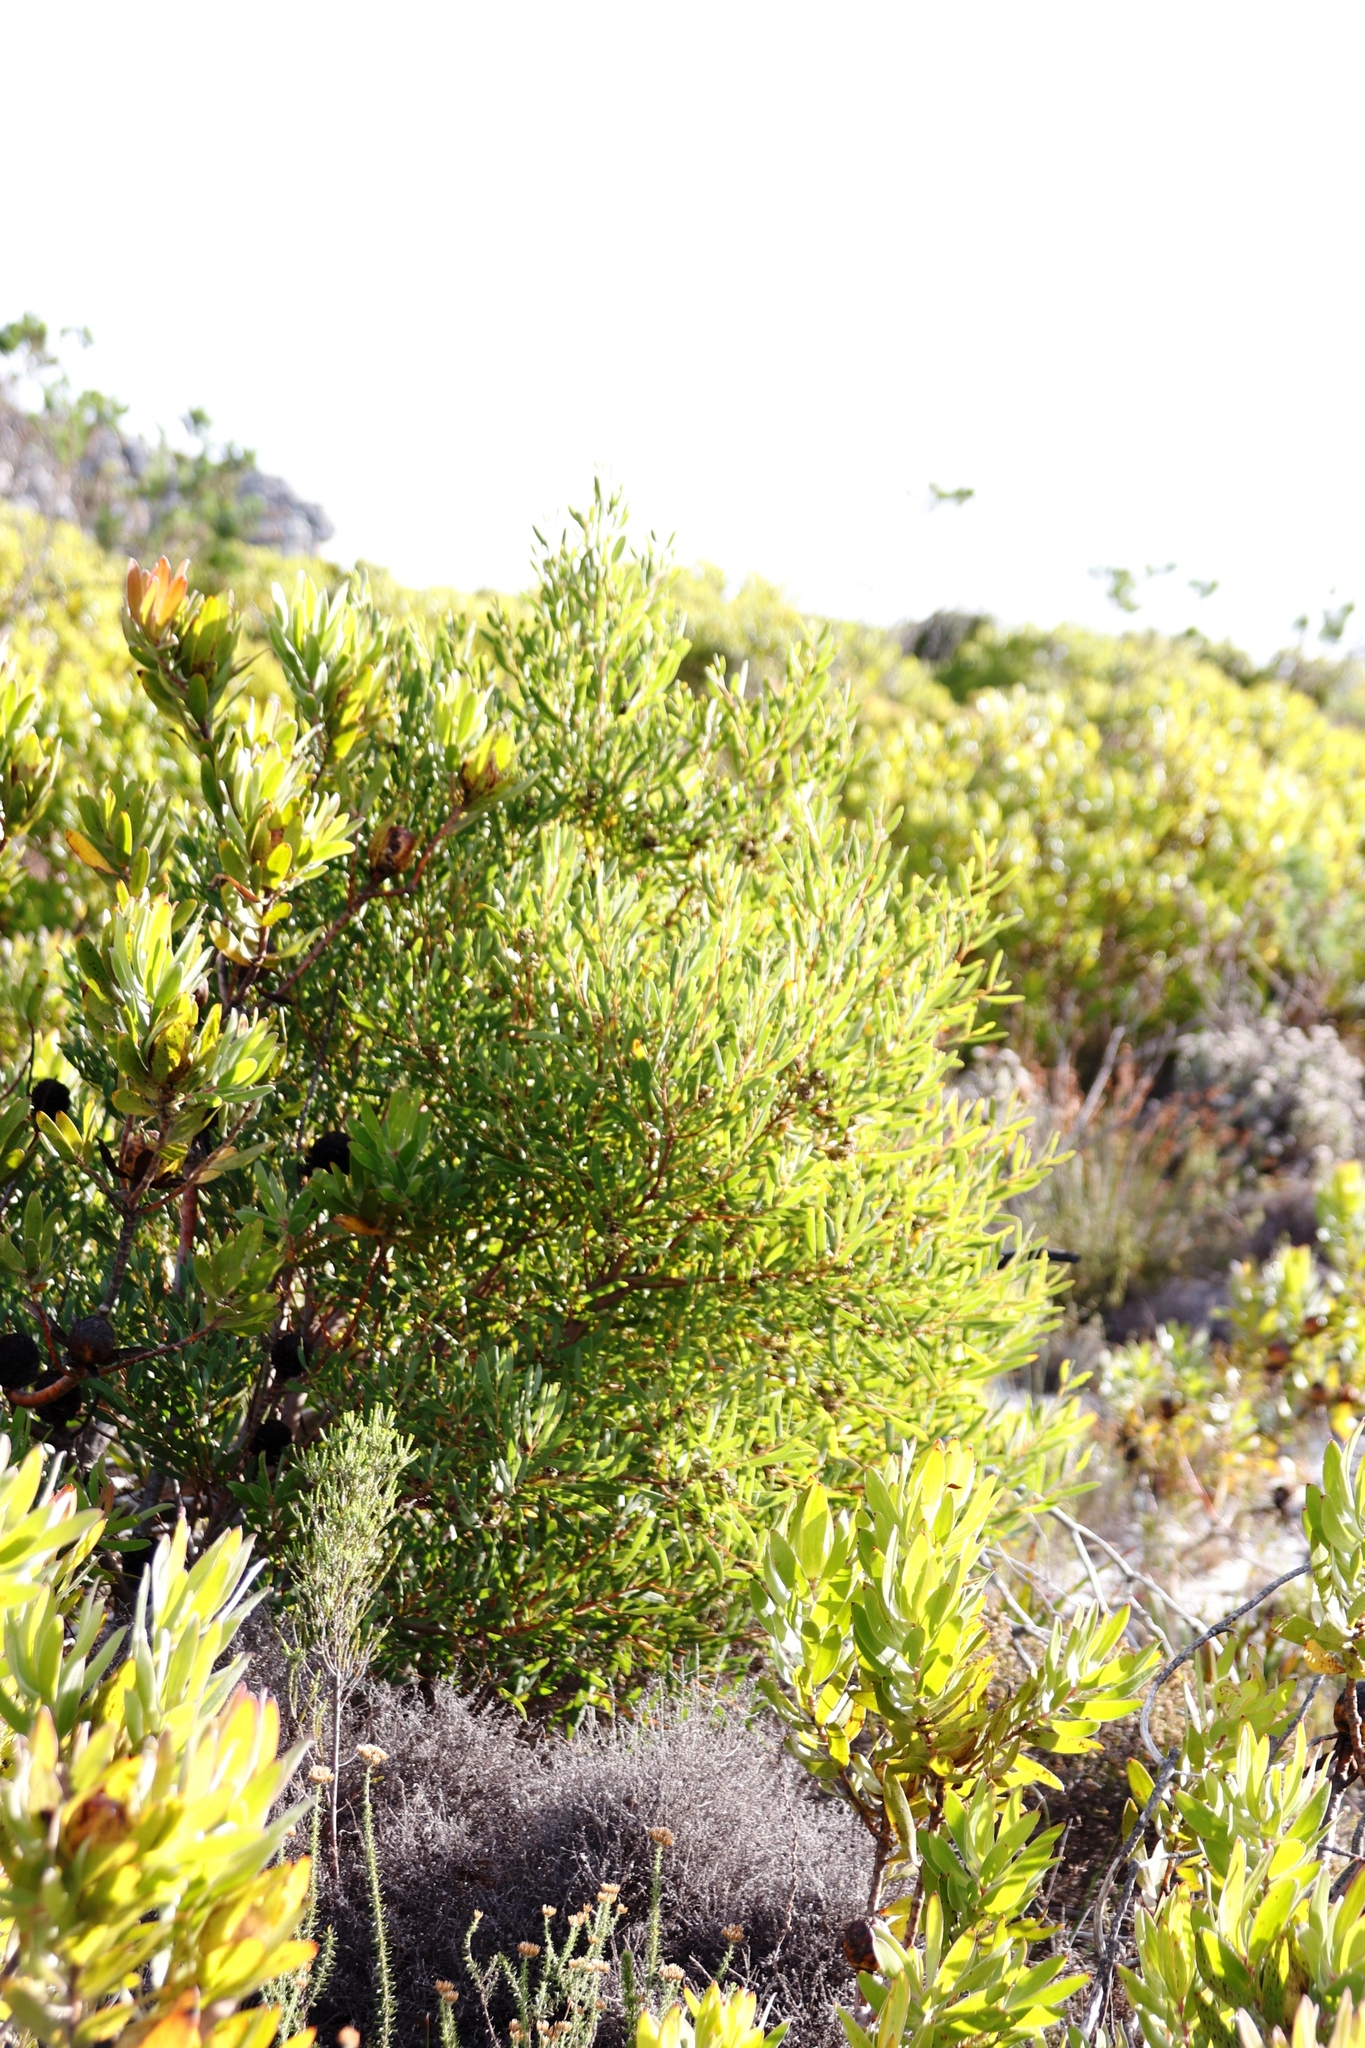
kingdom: Plantae
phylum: Tracheophyta
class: Magnoliopsida
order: Fabales
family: Fabaceae
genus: Acacia
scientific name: Acacia cyclops
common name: Coastal wattle
